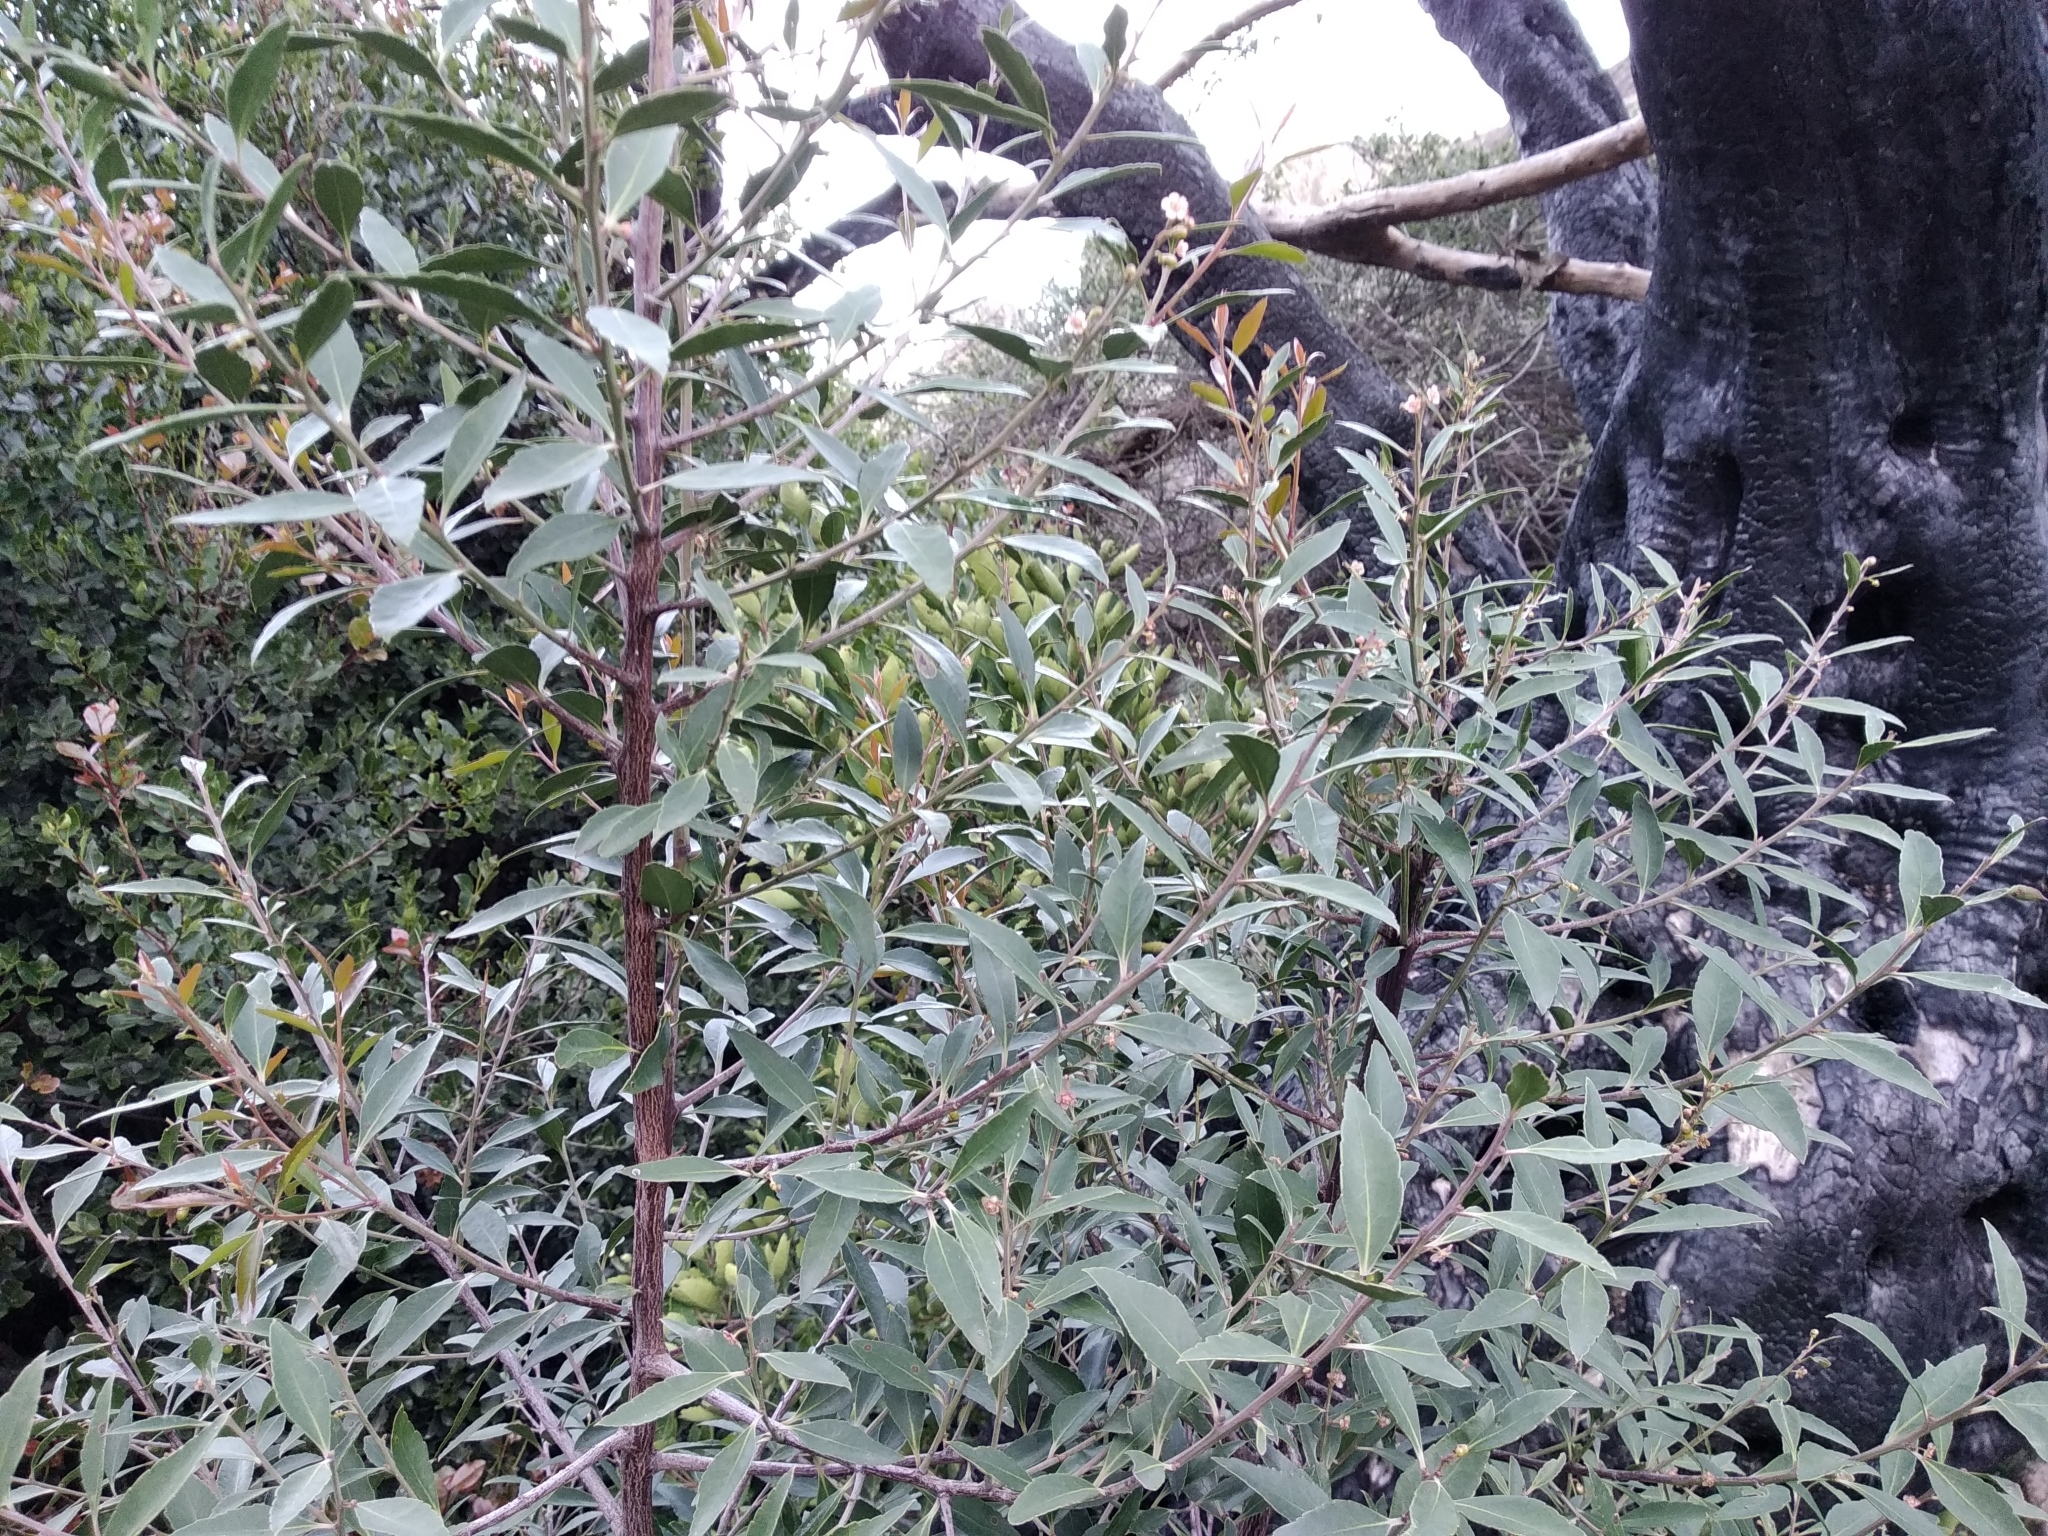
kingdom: Plantae
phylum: Tracheophyta
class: Magnoliopsida
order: Celastrales
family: Celastraceae
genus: Gymnosporia
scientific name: Gymnosporia acuminata
